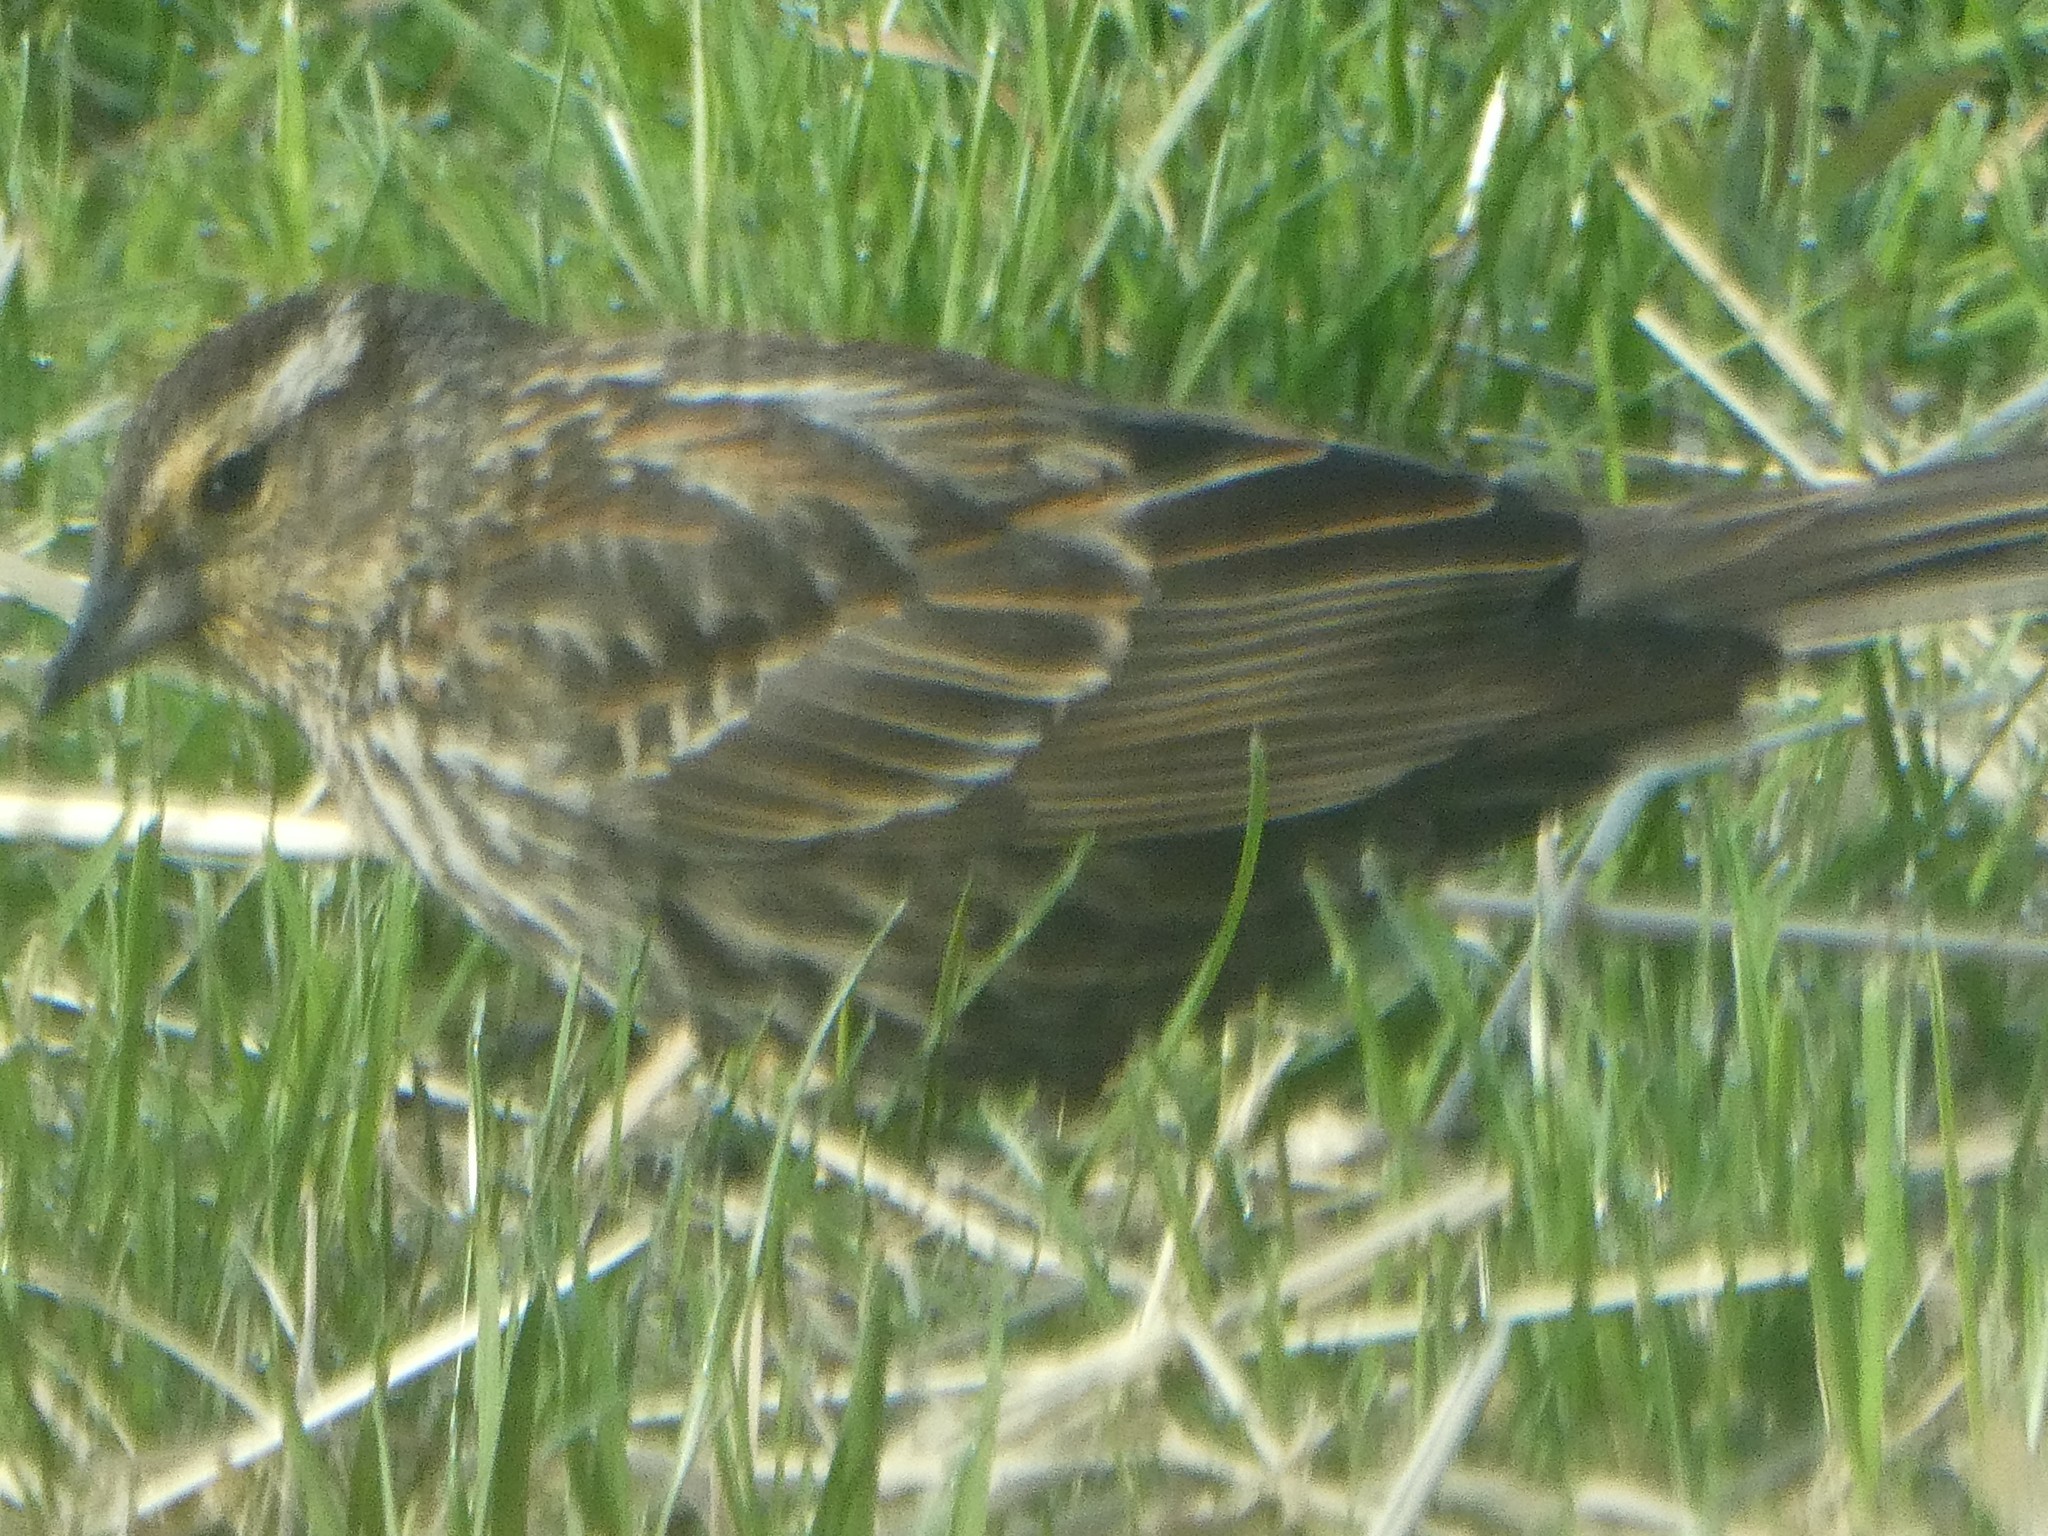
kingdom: Animalia
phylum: Chordata
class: Aves
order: Passeriformes
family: Icteridae
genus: Agelaius
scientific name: Agelaius phoeniceus
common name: Red-winged blackbird
